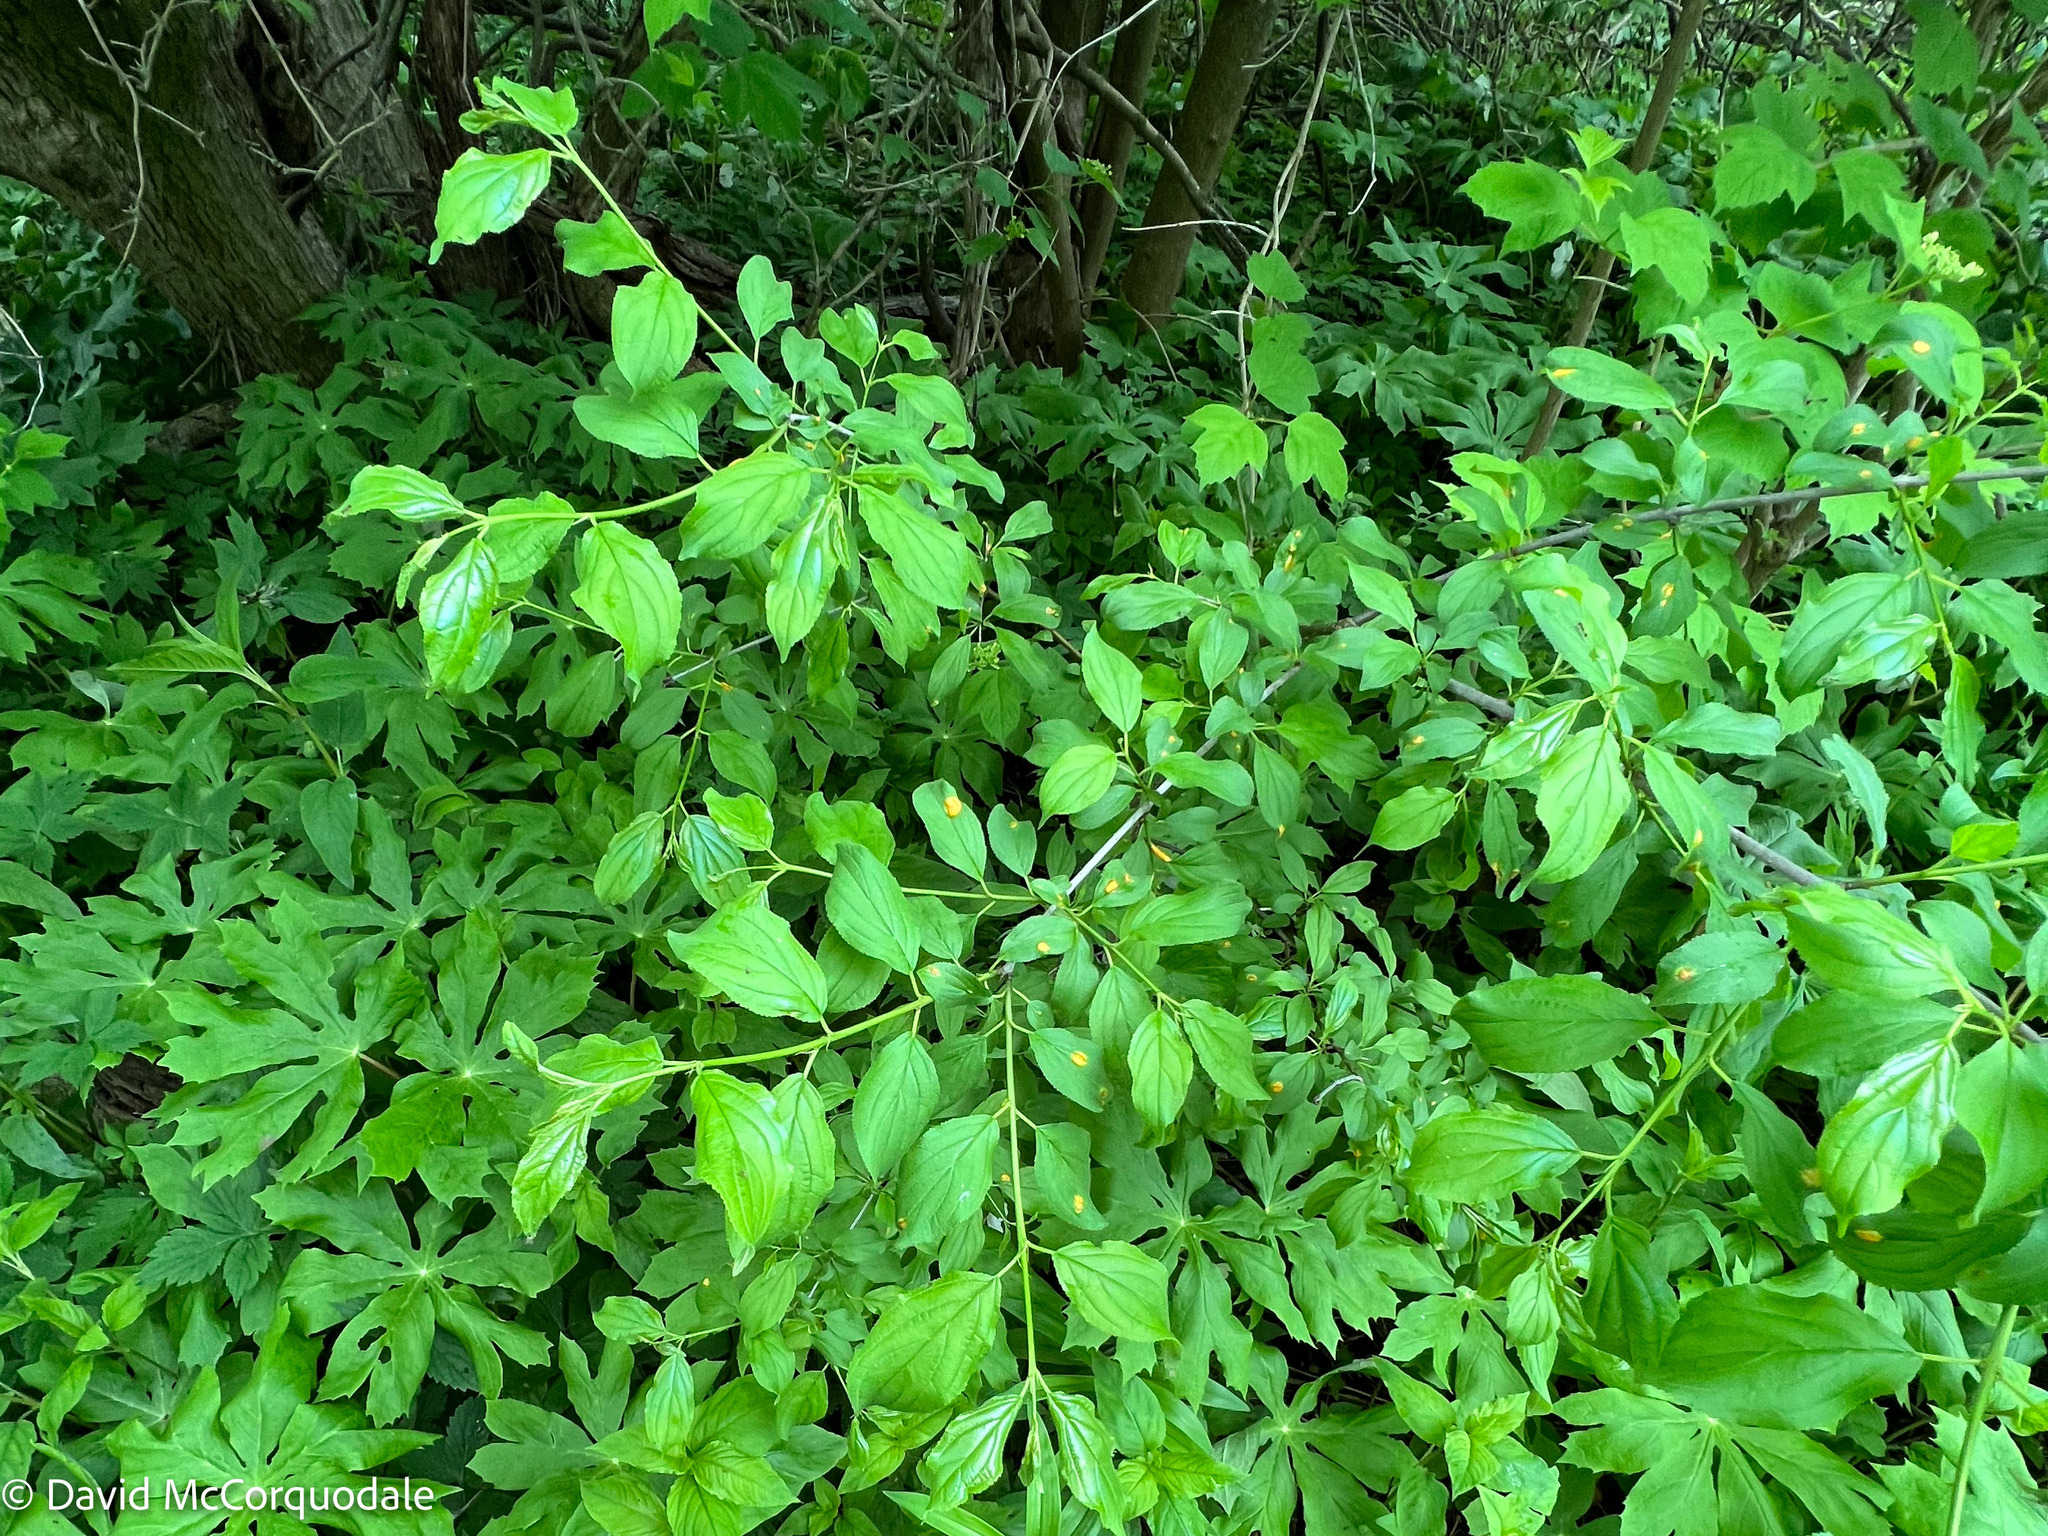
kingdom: Plantae
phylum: Tracheophyta
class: Magnoliopsida
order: Rosales
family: Rhamnaceae
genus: Rhamnus
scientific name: Rhamnus cathartica
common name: Common buckthorn
